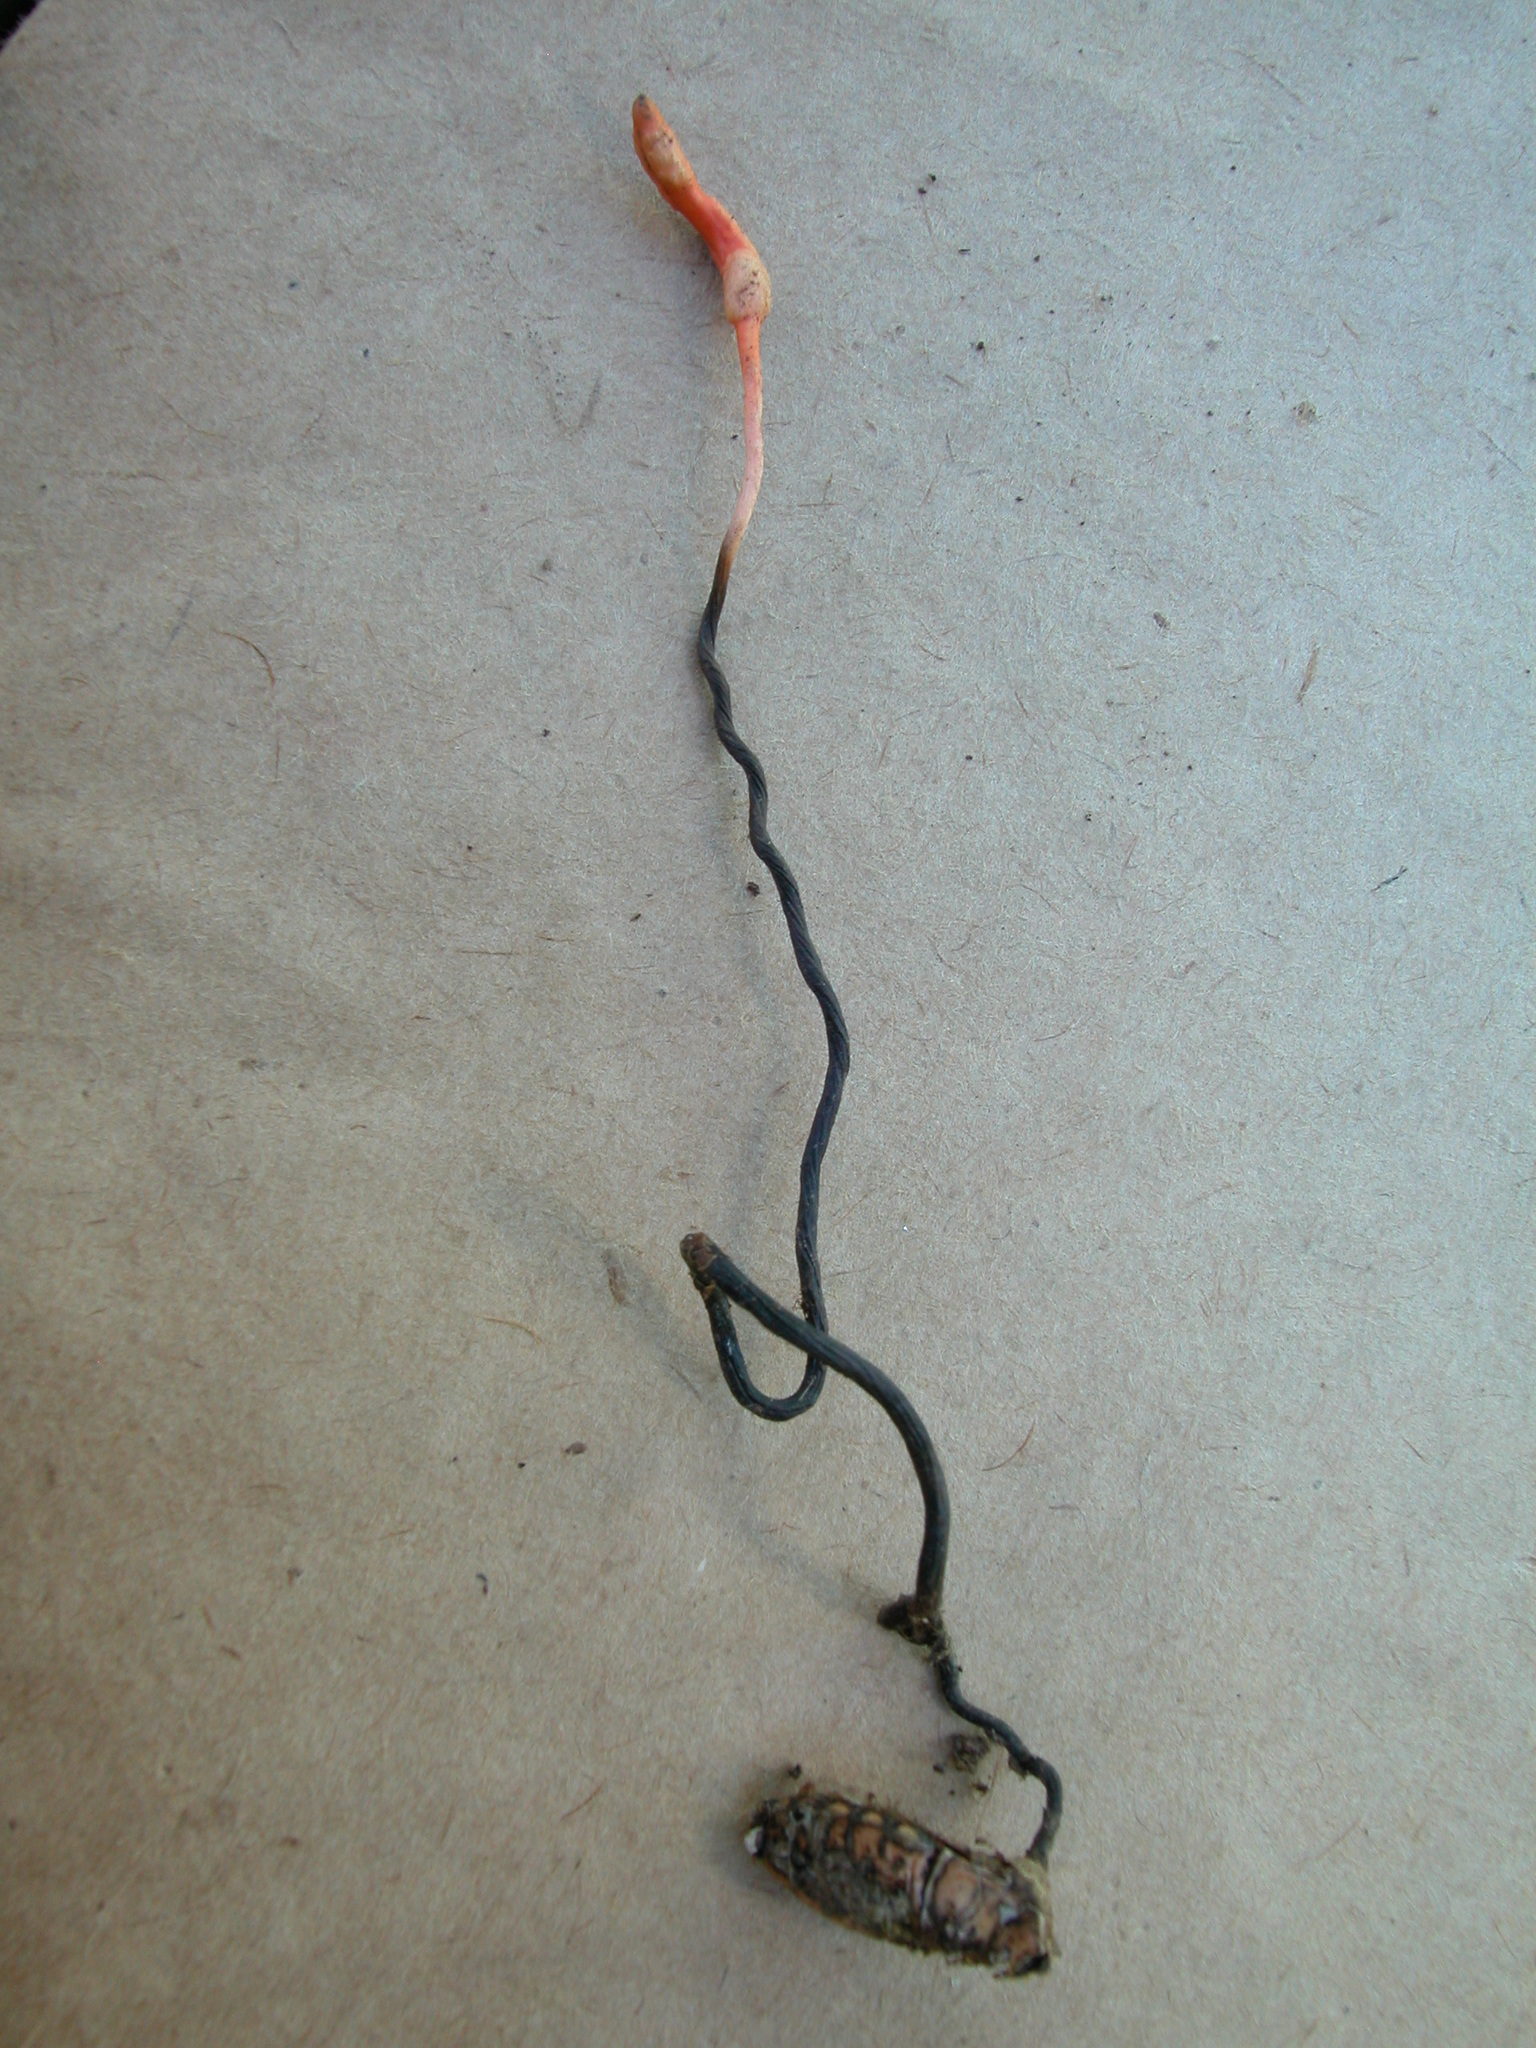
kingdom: Fungi
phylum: Ascomycota
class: Sordariomycetes
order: Hypocreales
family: Ophiocordycipitaceae
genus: Ophiocordyceps
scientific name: Ophiocordyceps nutans
